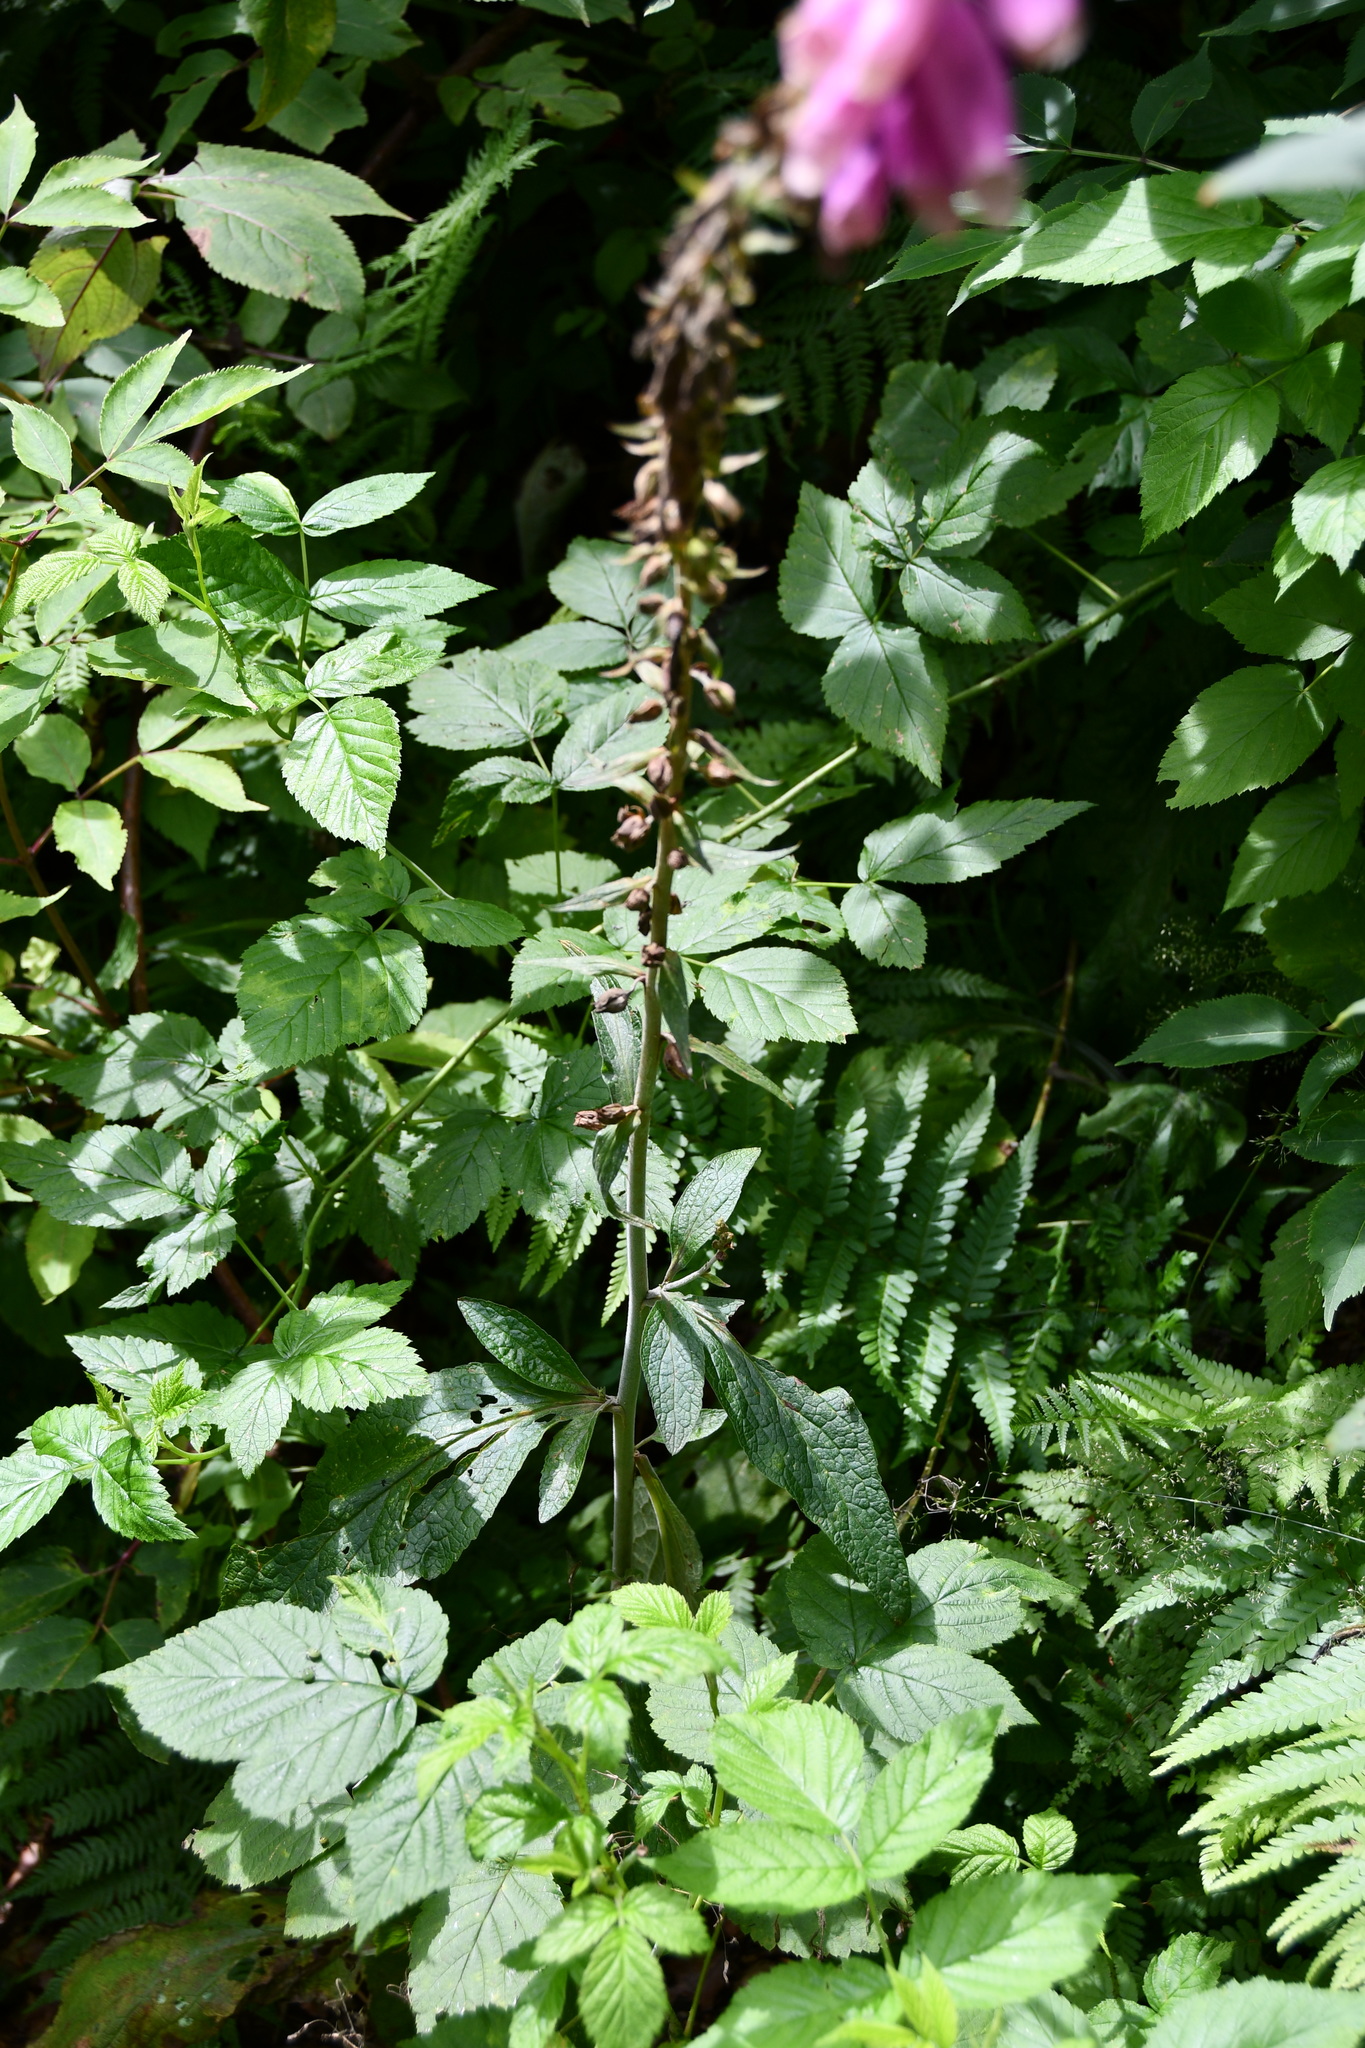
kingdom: Plantae
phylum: Tracheophyta
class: Magnoliopsida
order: Lamiales
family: Plantaginaceae
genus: Digitalis
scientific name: Digitalis purpurea
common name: Foxglove
